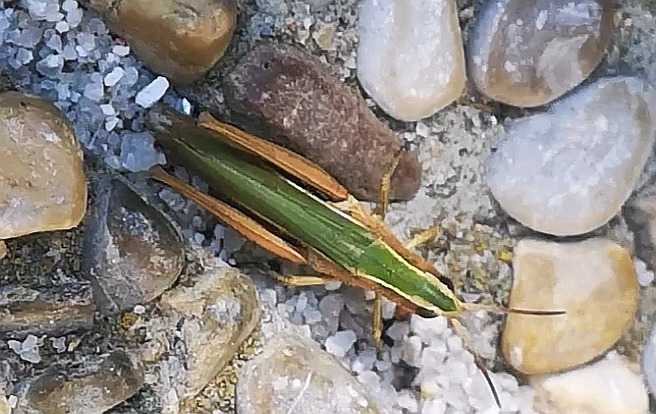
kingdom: Animalia
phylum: Arthropoda
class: Insecta
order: Orthoptera
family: Acrididae
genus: Chorthippus
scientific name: Chorthippus albomarginatus
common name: Lesser marsh grasshopper
